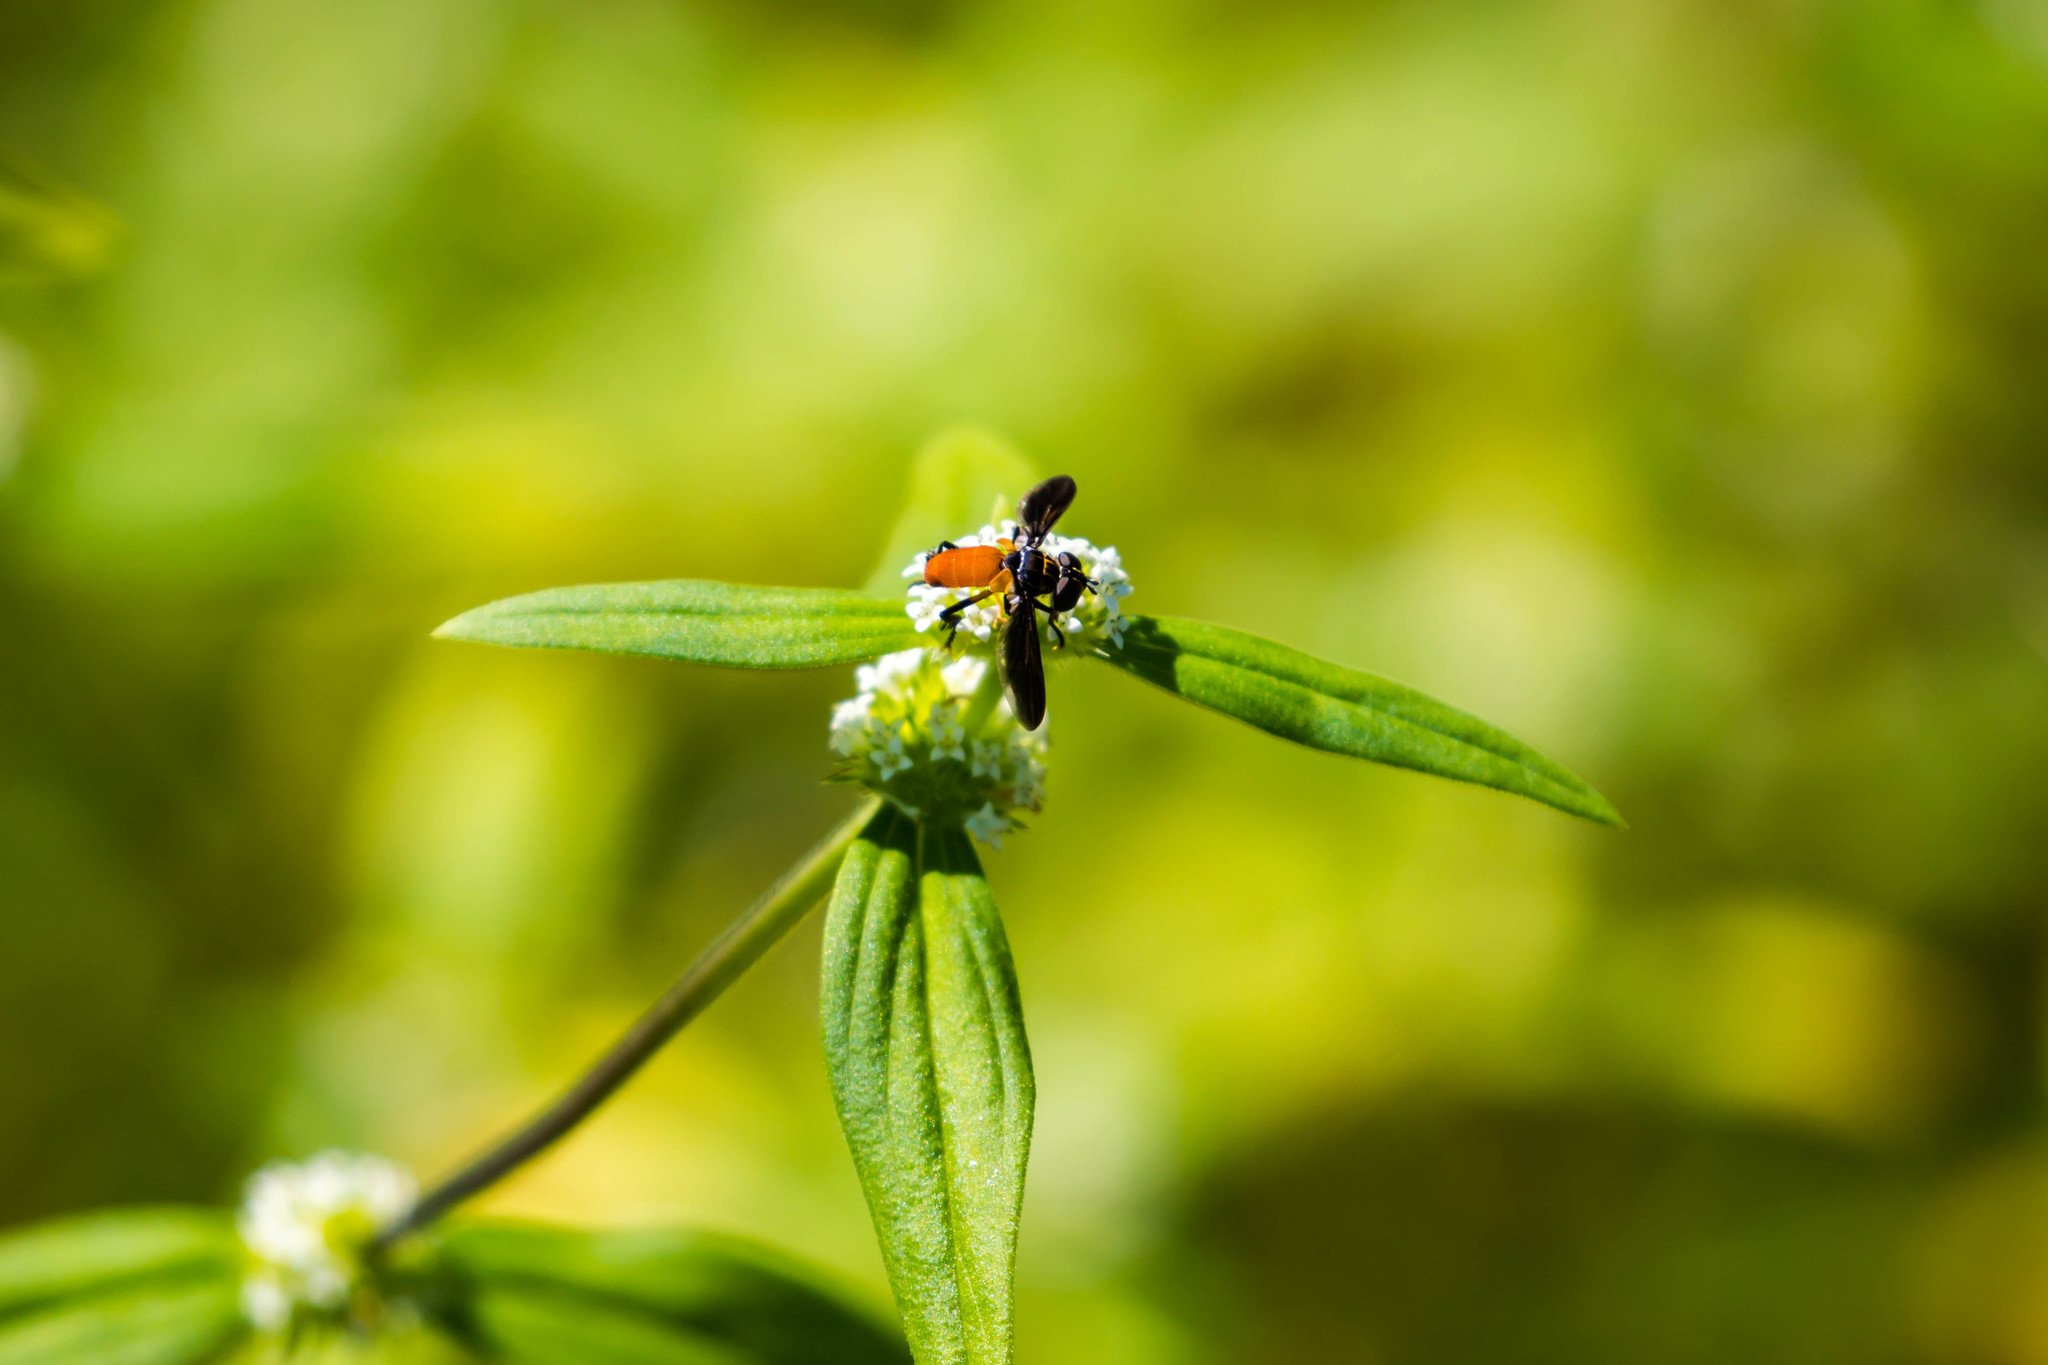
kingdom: Animalia
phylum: Arthropoda
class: Insecta
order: Diptera
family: Tachinidae
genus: Trichopoda
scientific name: Trichopoda pennipes
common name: Tachinid fly
